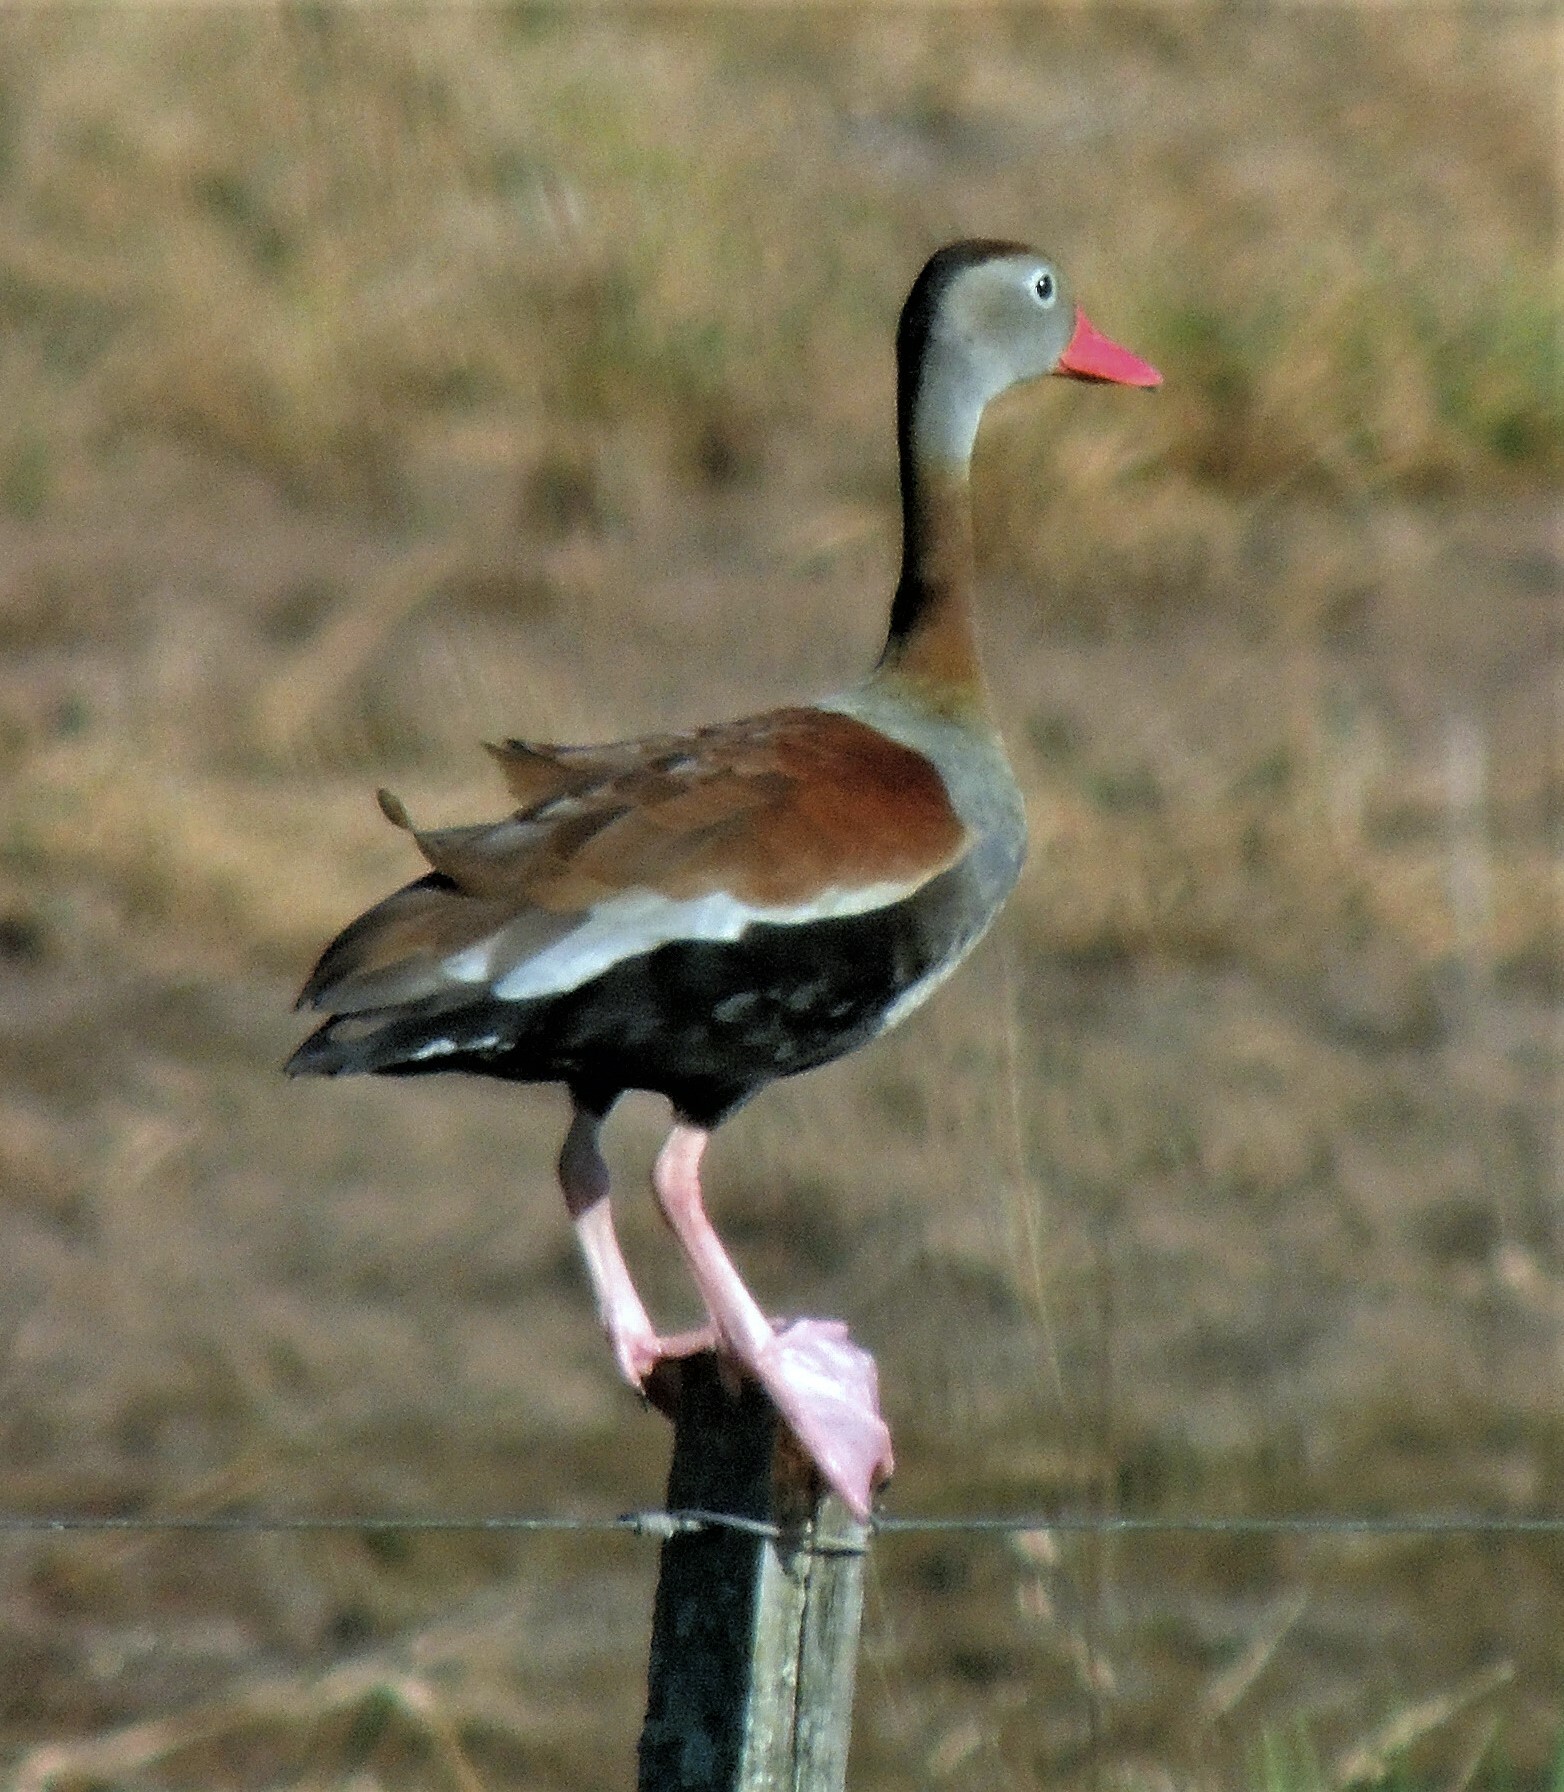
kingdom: Animalia
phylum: Chordata
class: Aves
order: Anseriformes
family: Anatidae
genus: Dendrocygna
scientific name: Dendrocygna autumnalis
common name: Black-bellied whistling duck
